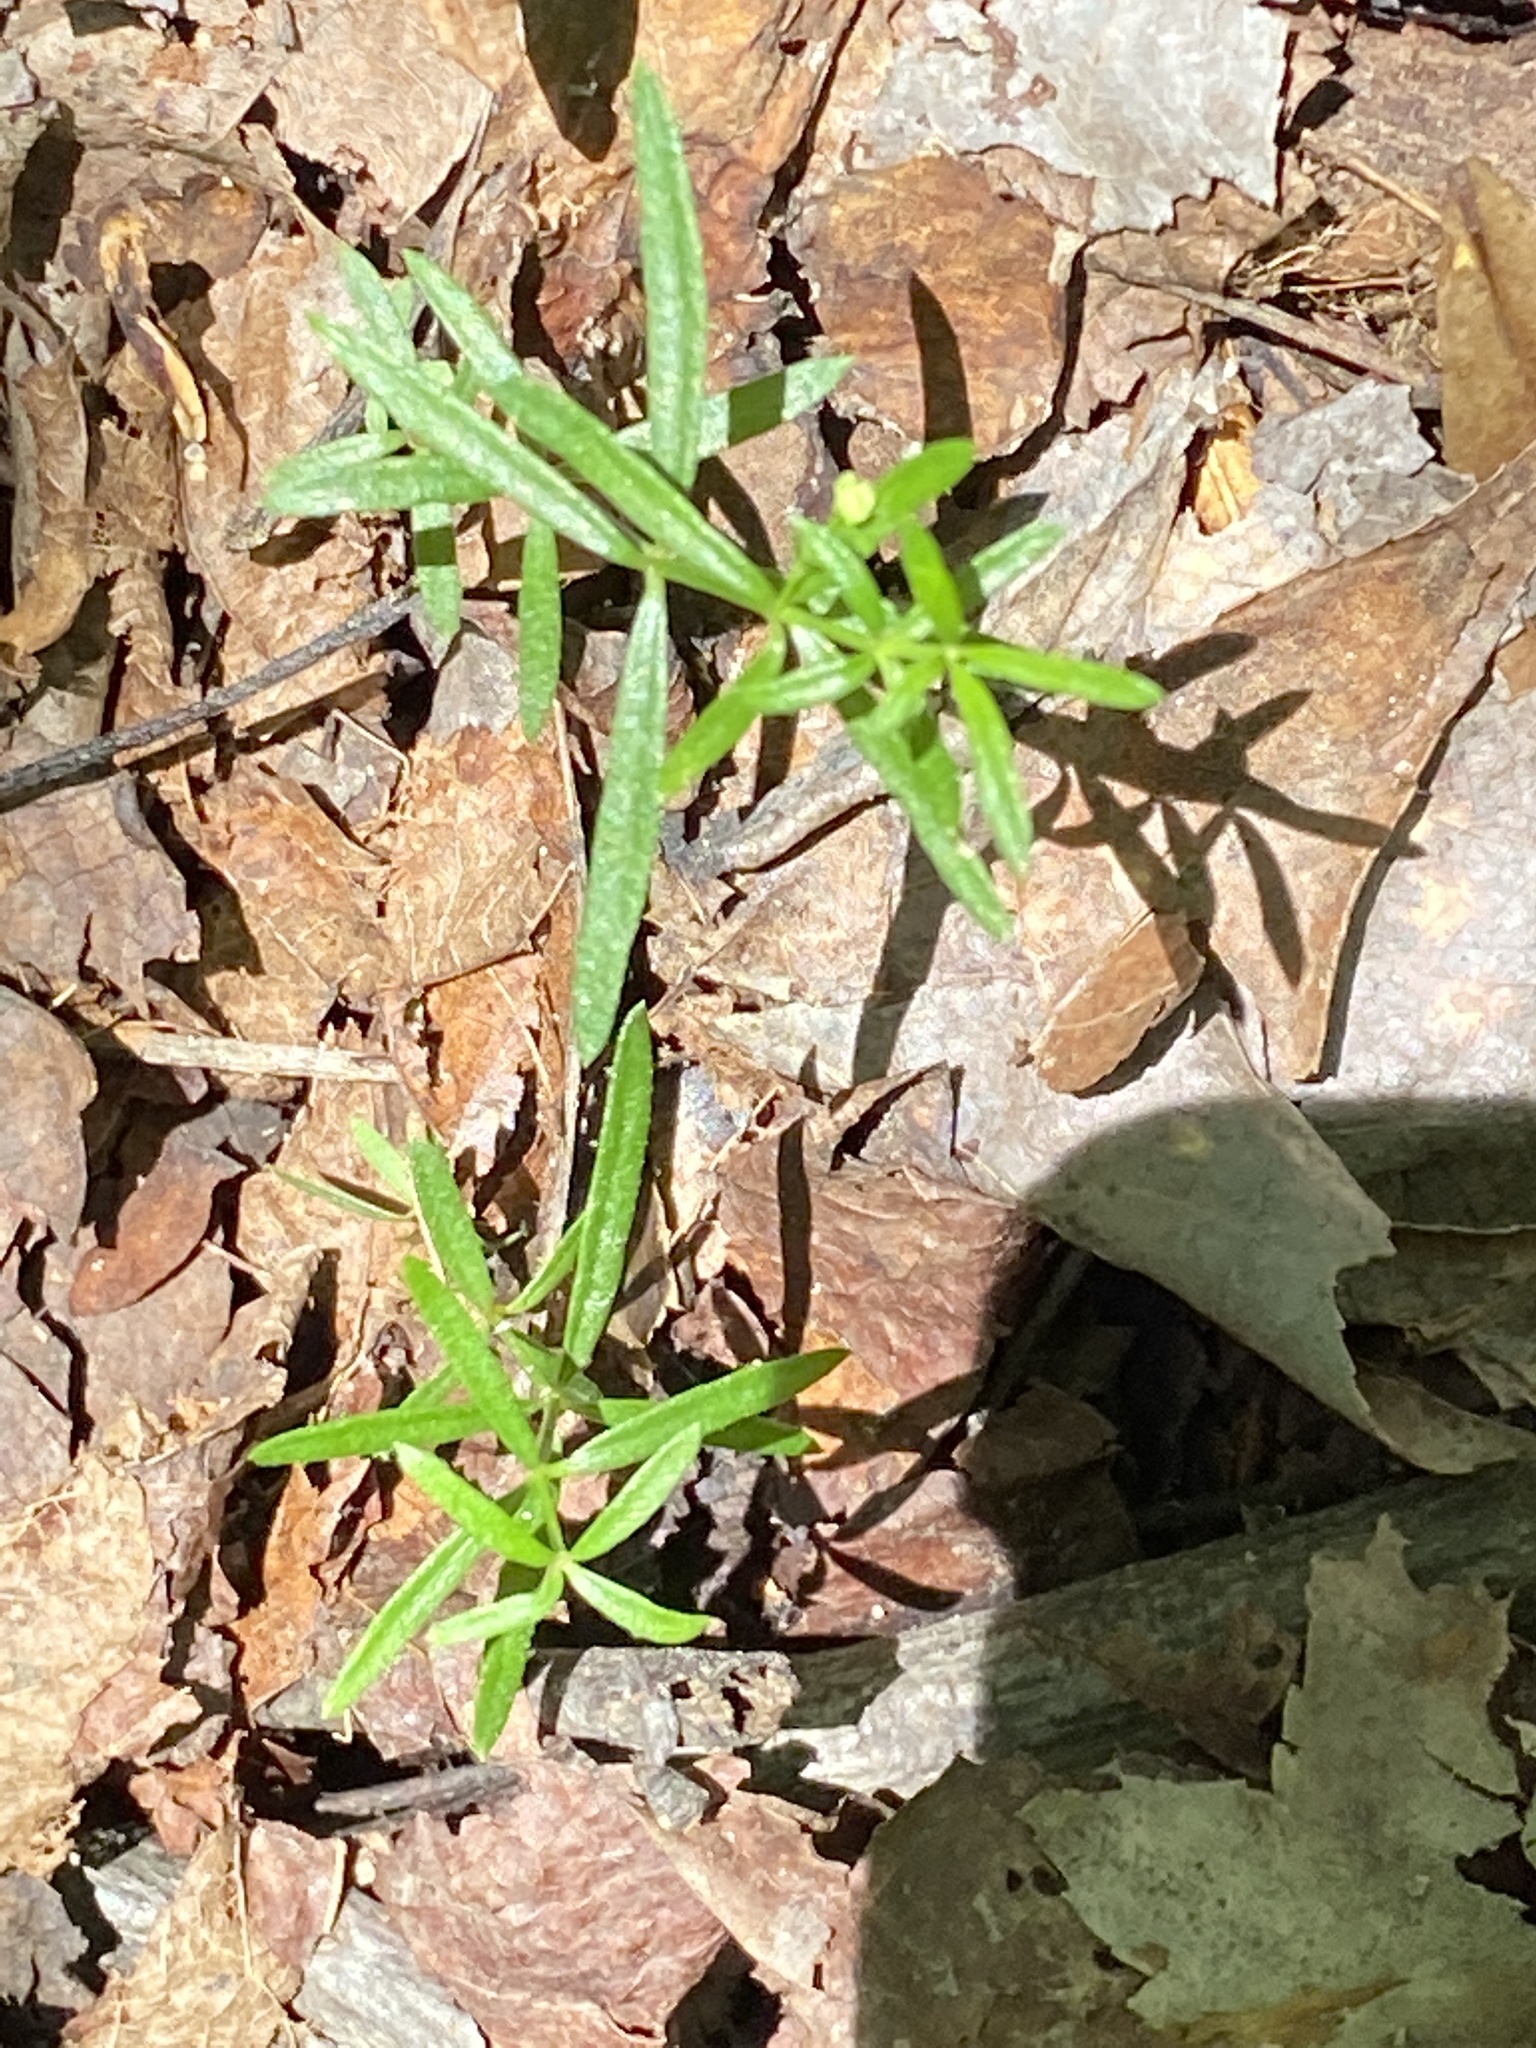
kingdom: Plantae
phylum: Tracheophyta
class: Magnoliopsida
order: Gentianales
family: Rubiaceae
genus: Galium
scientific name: Galium uniflorum
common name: One-flower bedstraw
